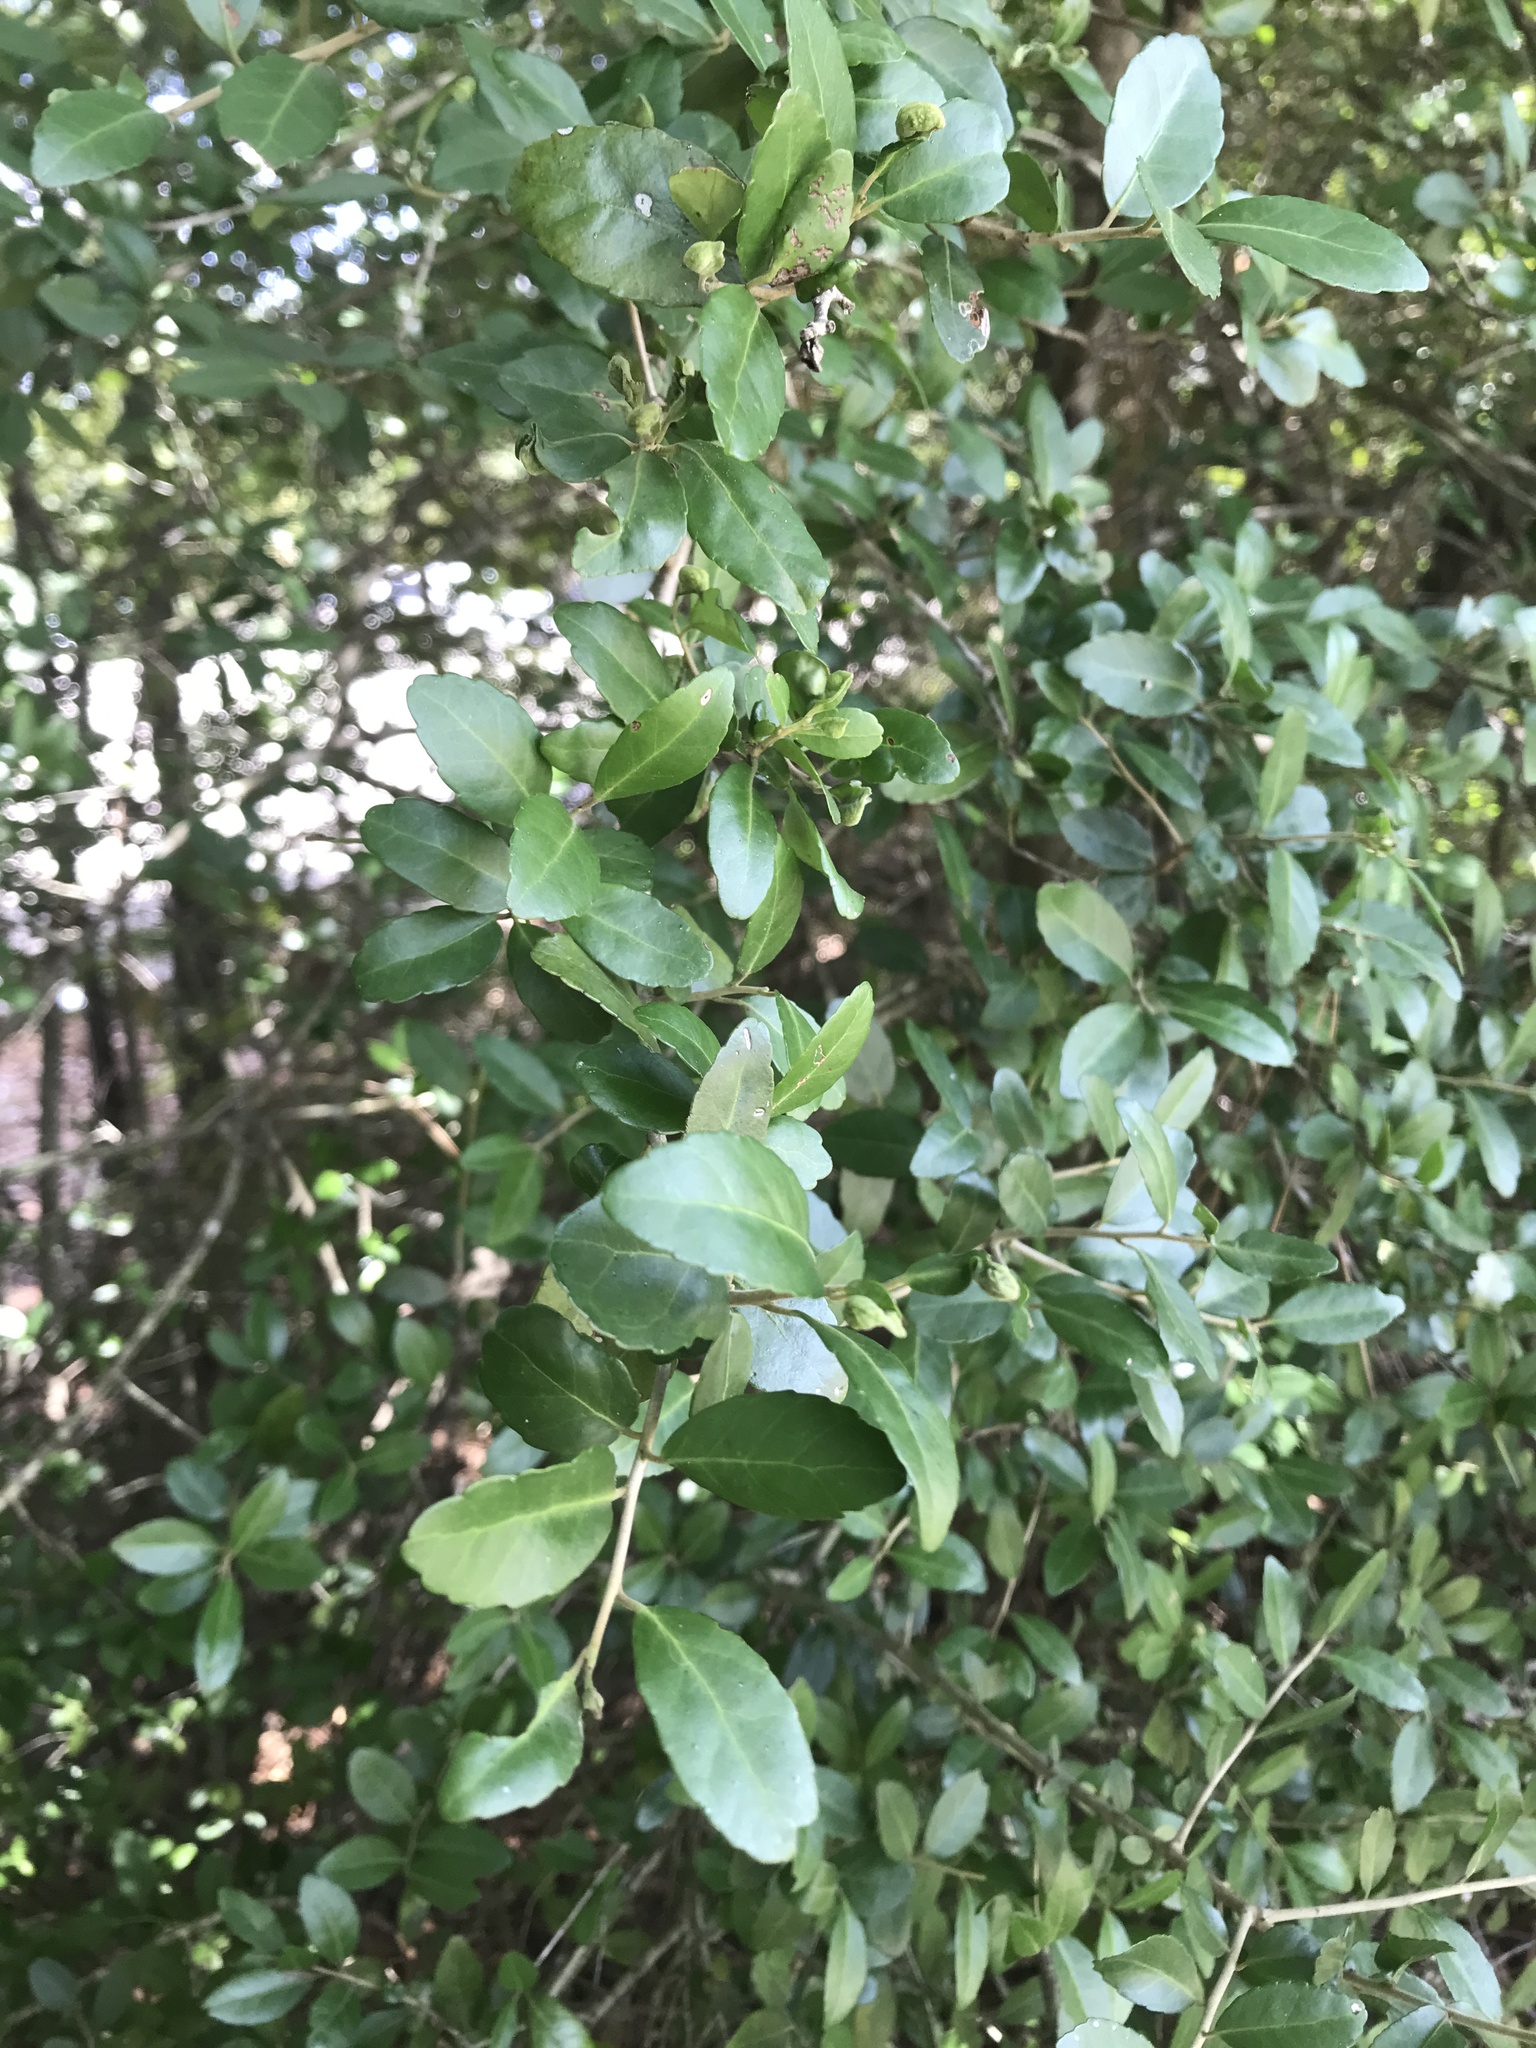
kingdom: Plantae
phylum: Tracheophyta
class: Magnoliopsida
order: Aquifoliales
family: Aquifoliaceae
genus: Ilex
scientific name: Ilex vomitoria
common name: Yaupon holly
